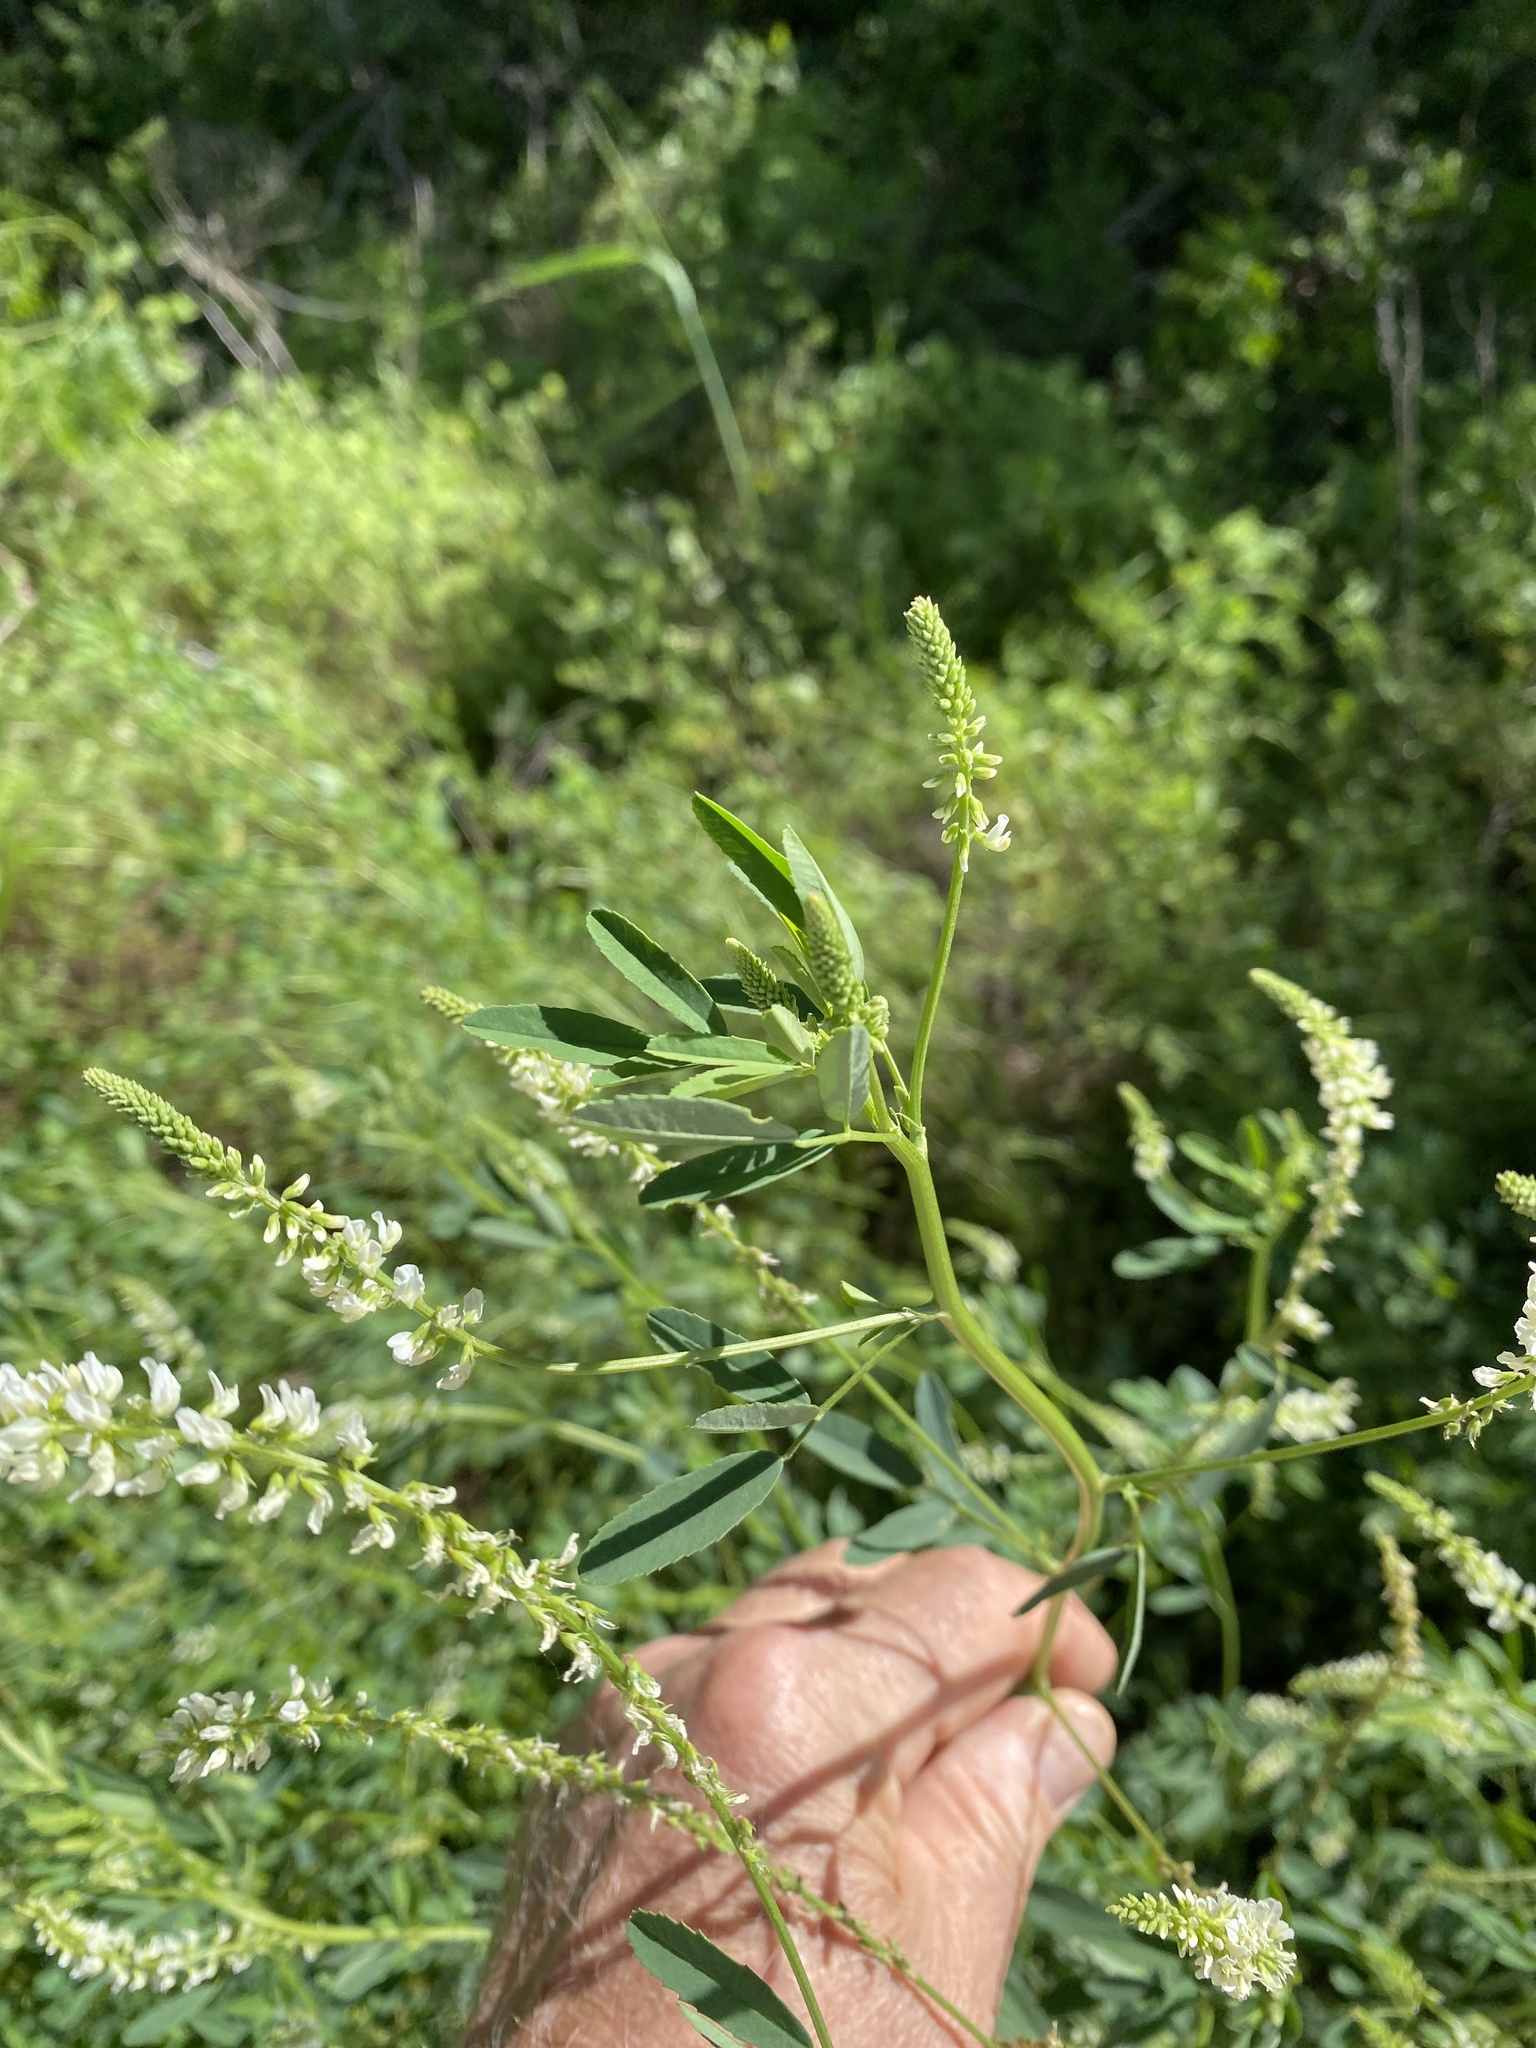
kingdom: Plantae
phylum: Tracheophyta
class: Magnoliopsida
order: Fabales
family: Fabaceae
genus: Melilotus
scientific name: Melilotus albus
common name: White melilot
